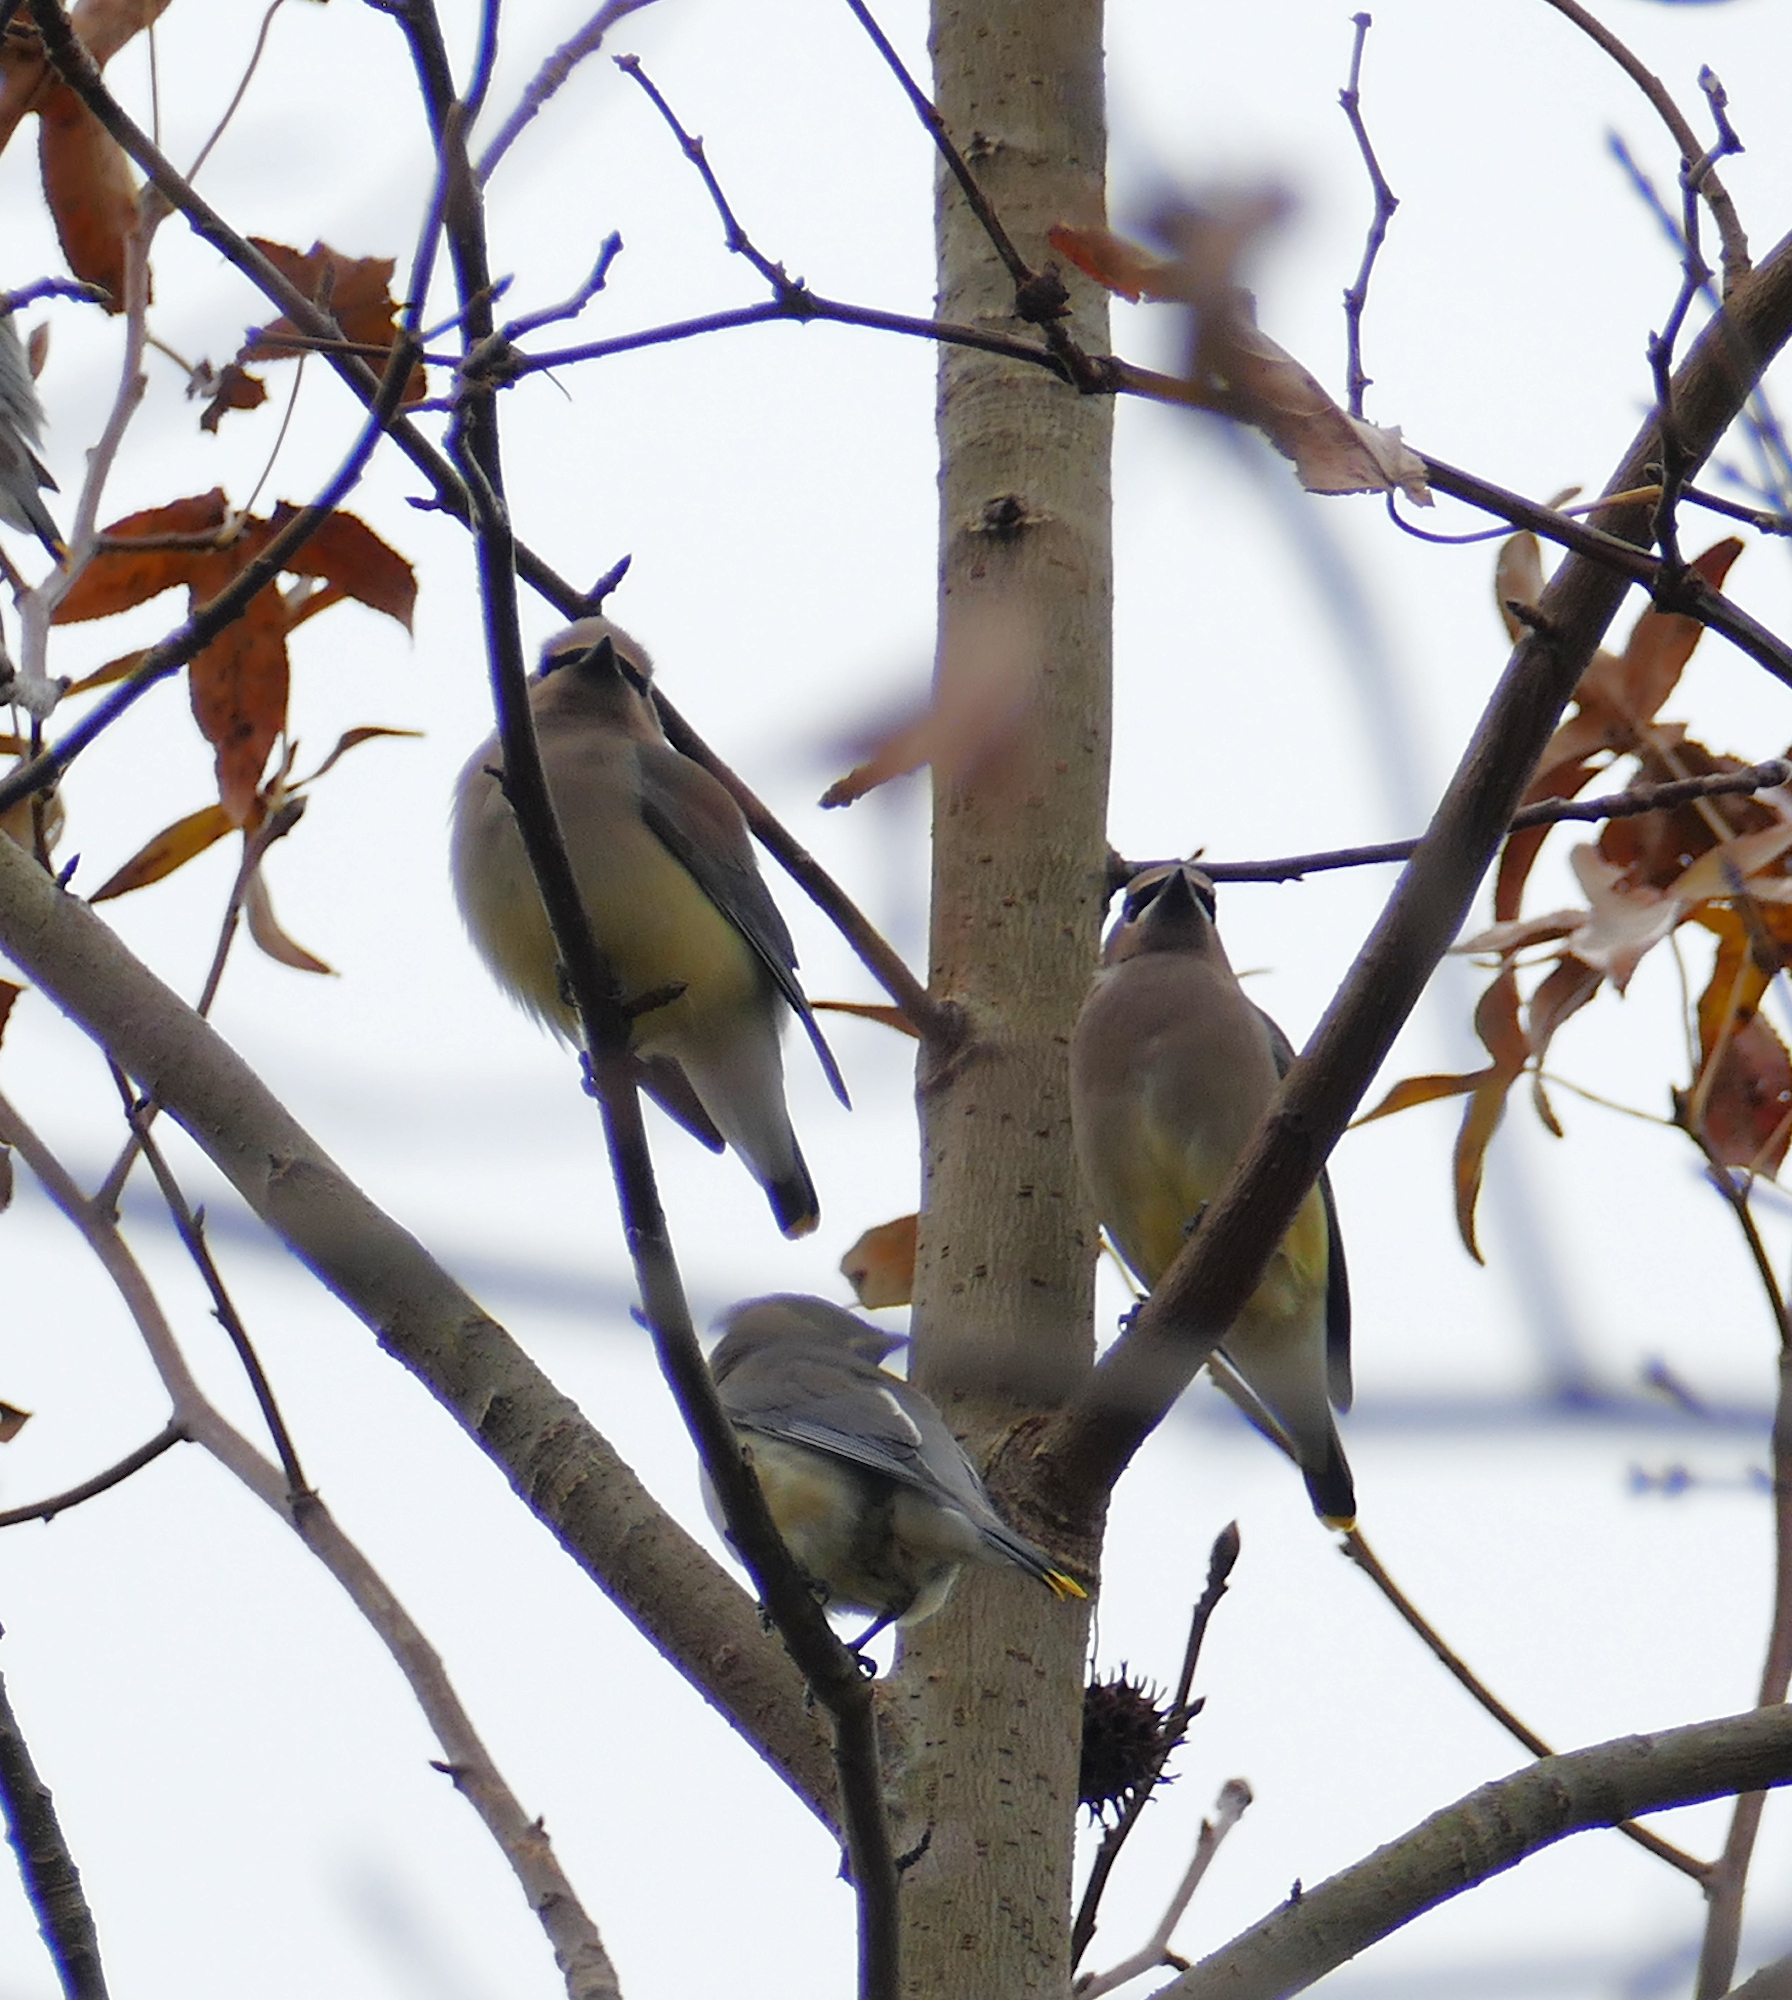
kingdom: Animalia
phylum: Chordata
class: Aves
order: Passeriformes
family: Bombycillidae
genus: Bombycilla
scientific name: Bombycilla cedrorum
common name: Cedar waxwing
